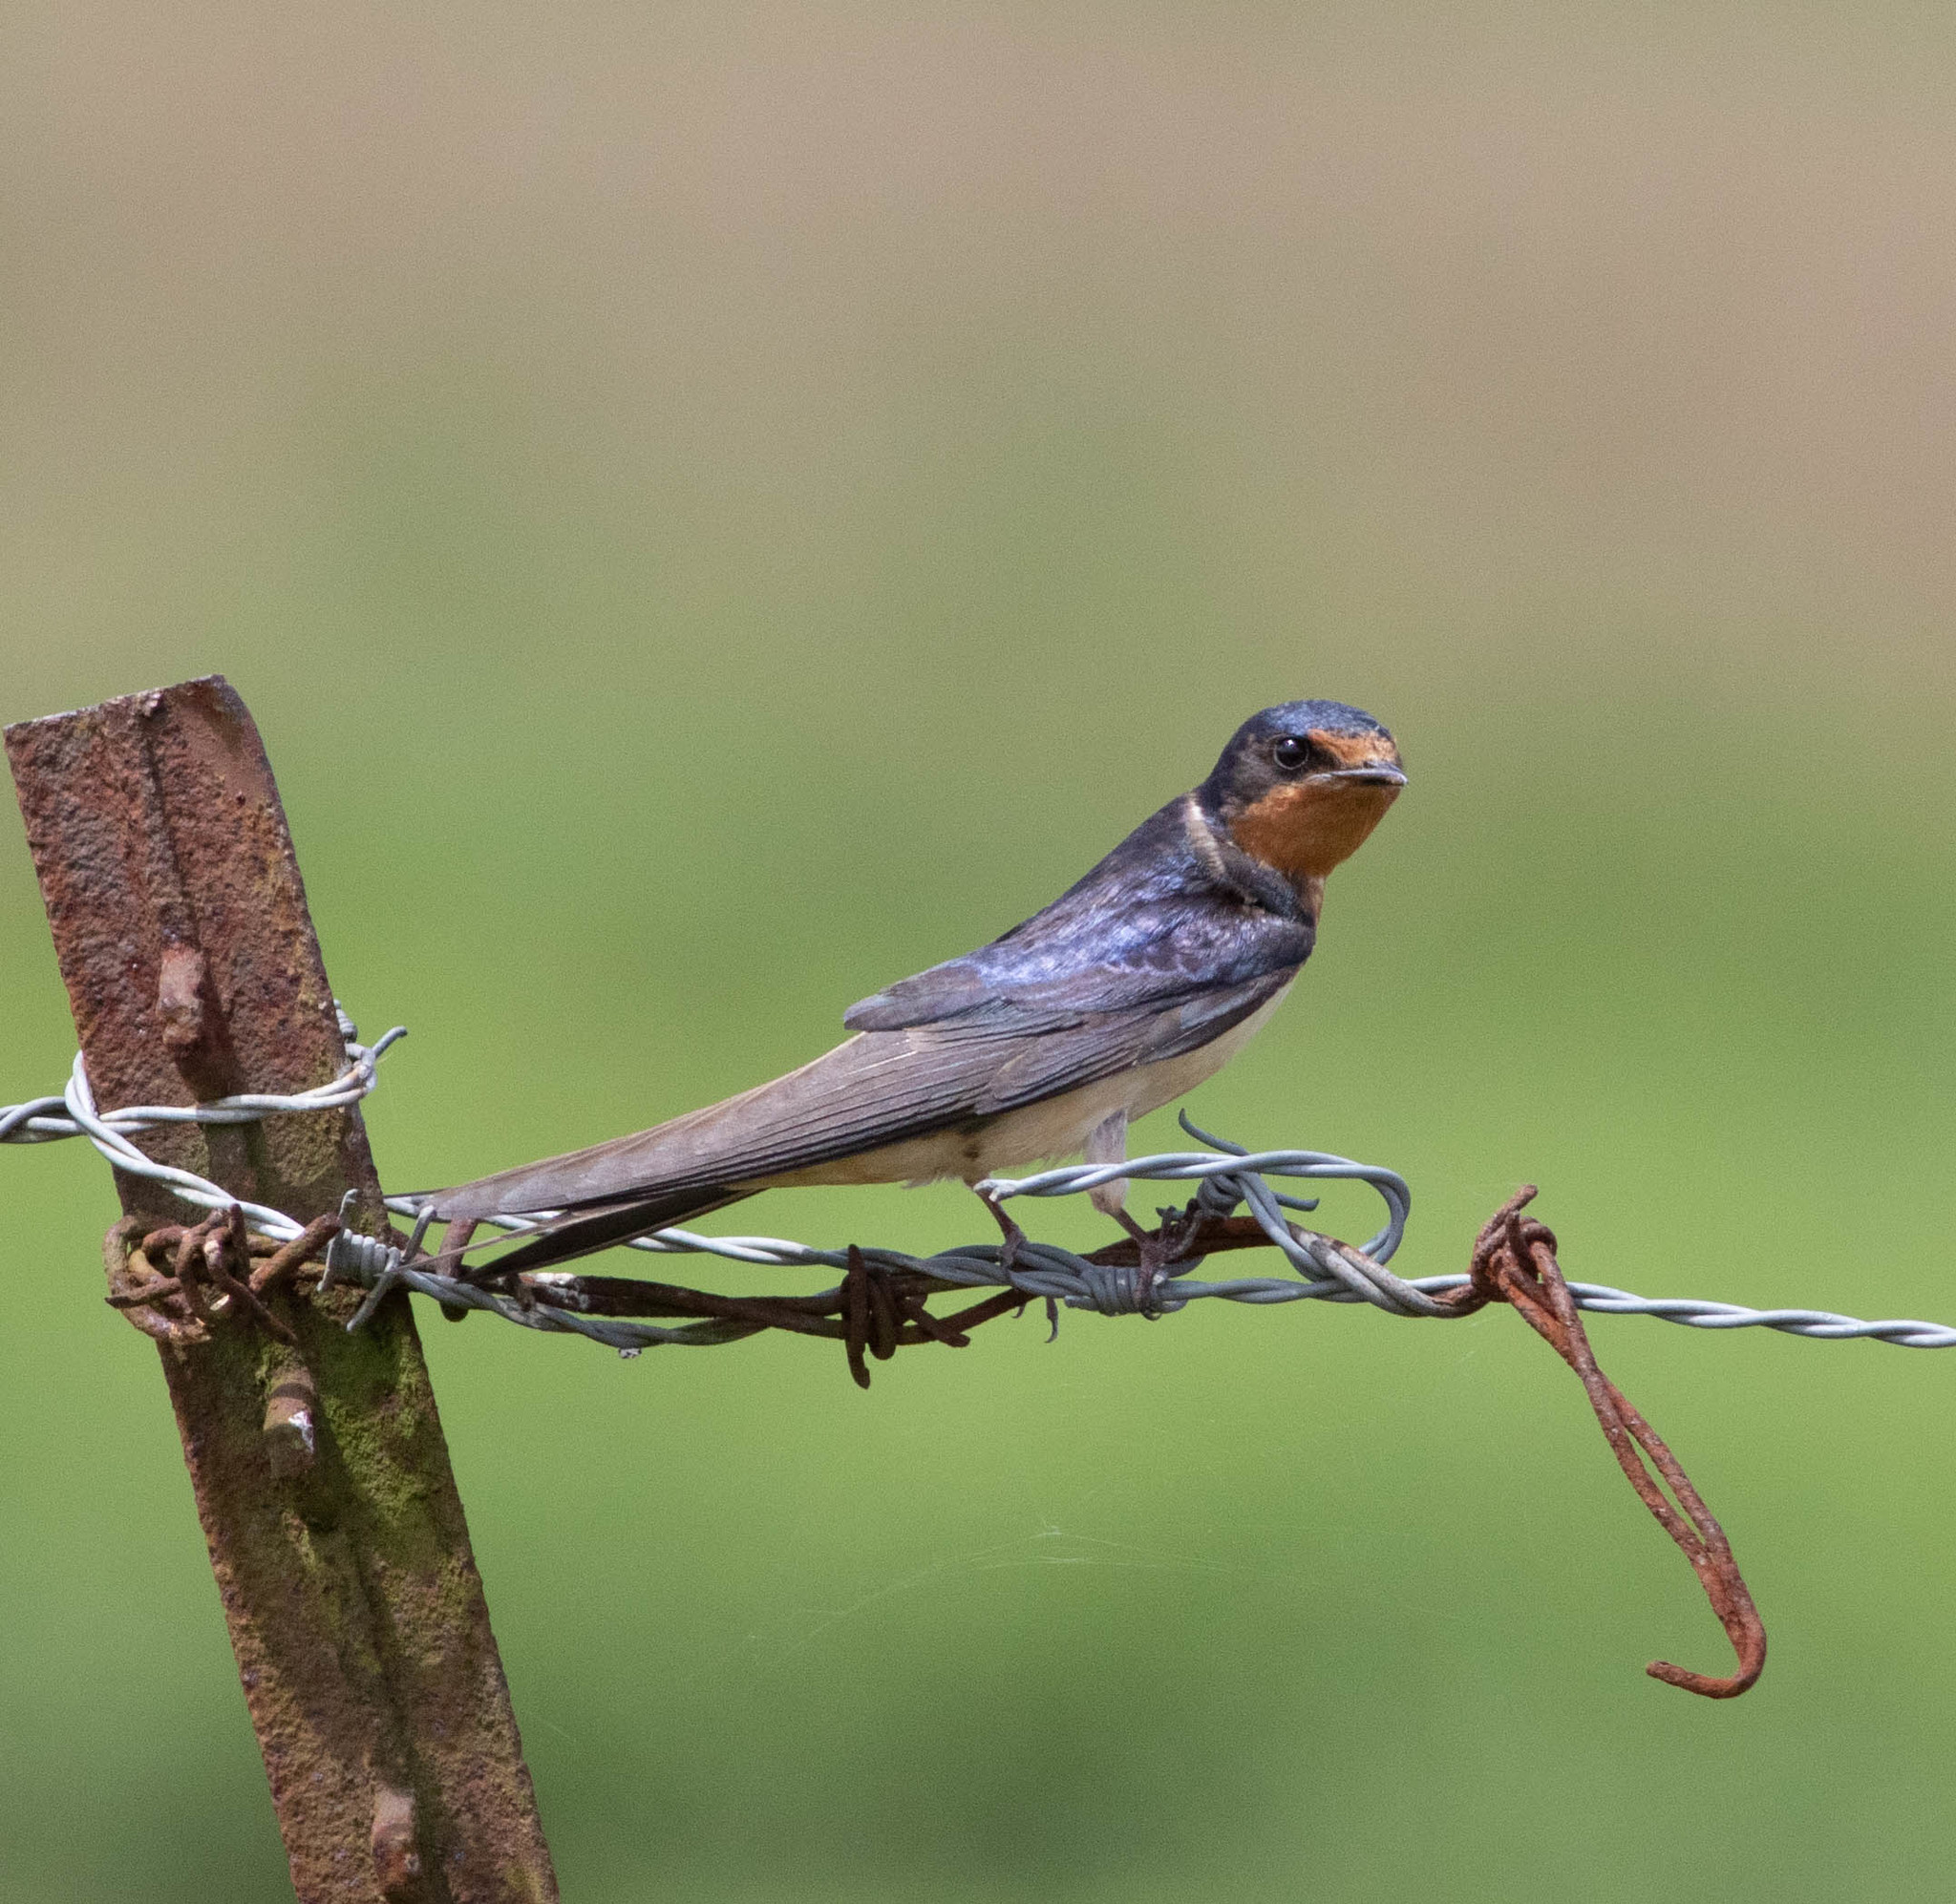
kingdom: Animalia
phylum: Chordata
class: Aves
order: Passeriformes
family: Hirundinidae
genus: Hirundo
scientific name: Hirundo rustica
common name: Barn swallow
